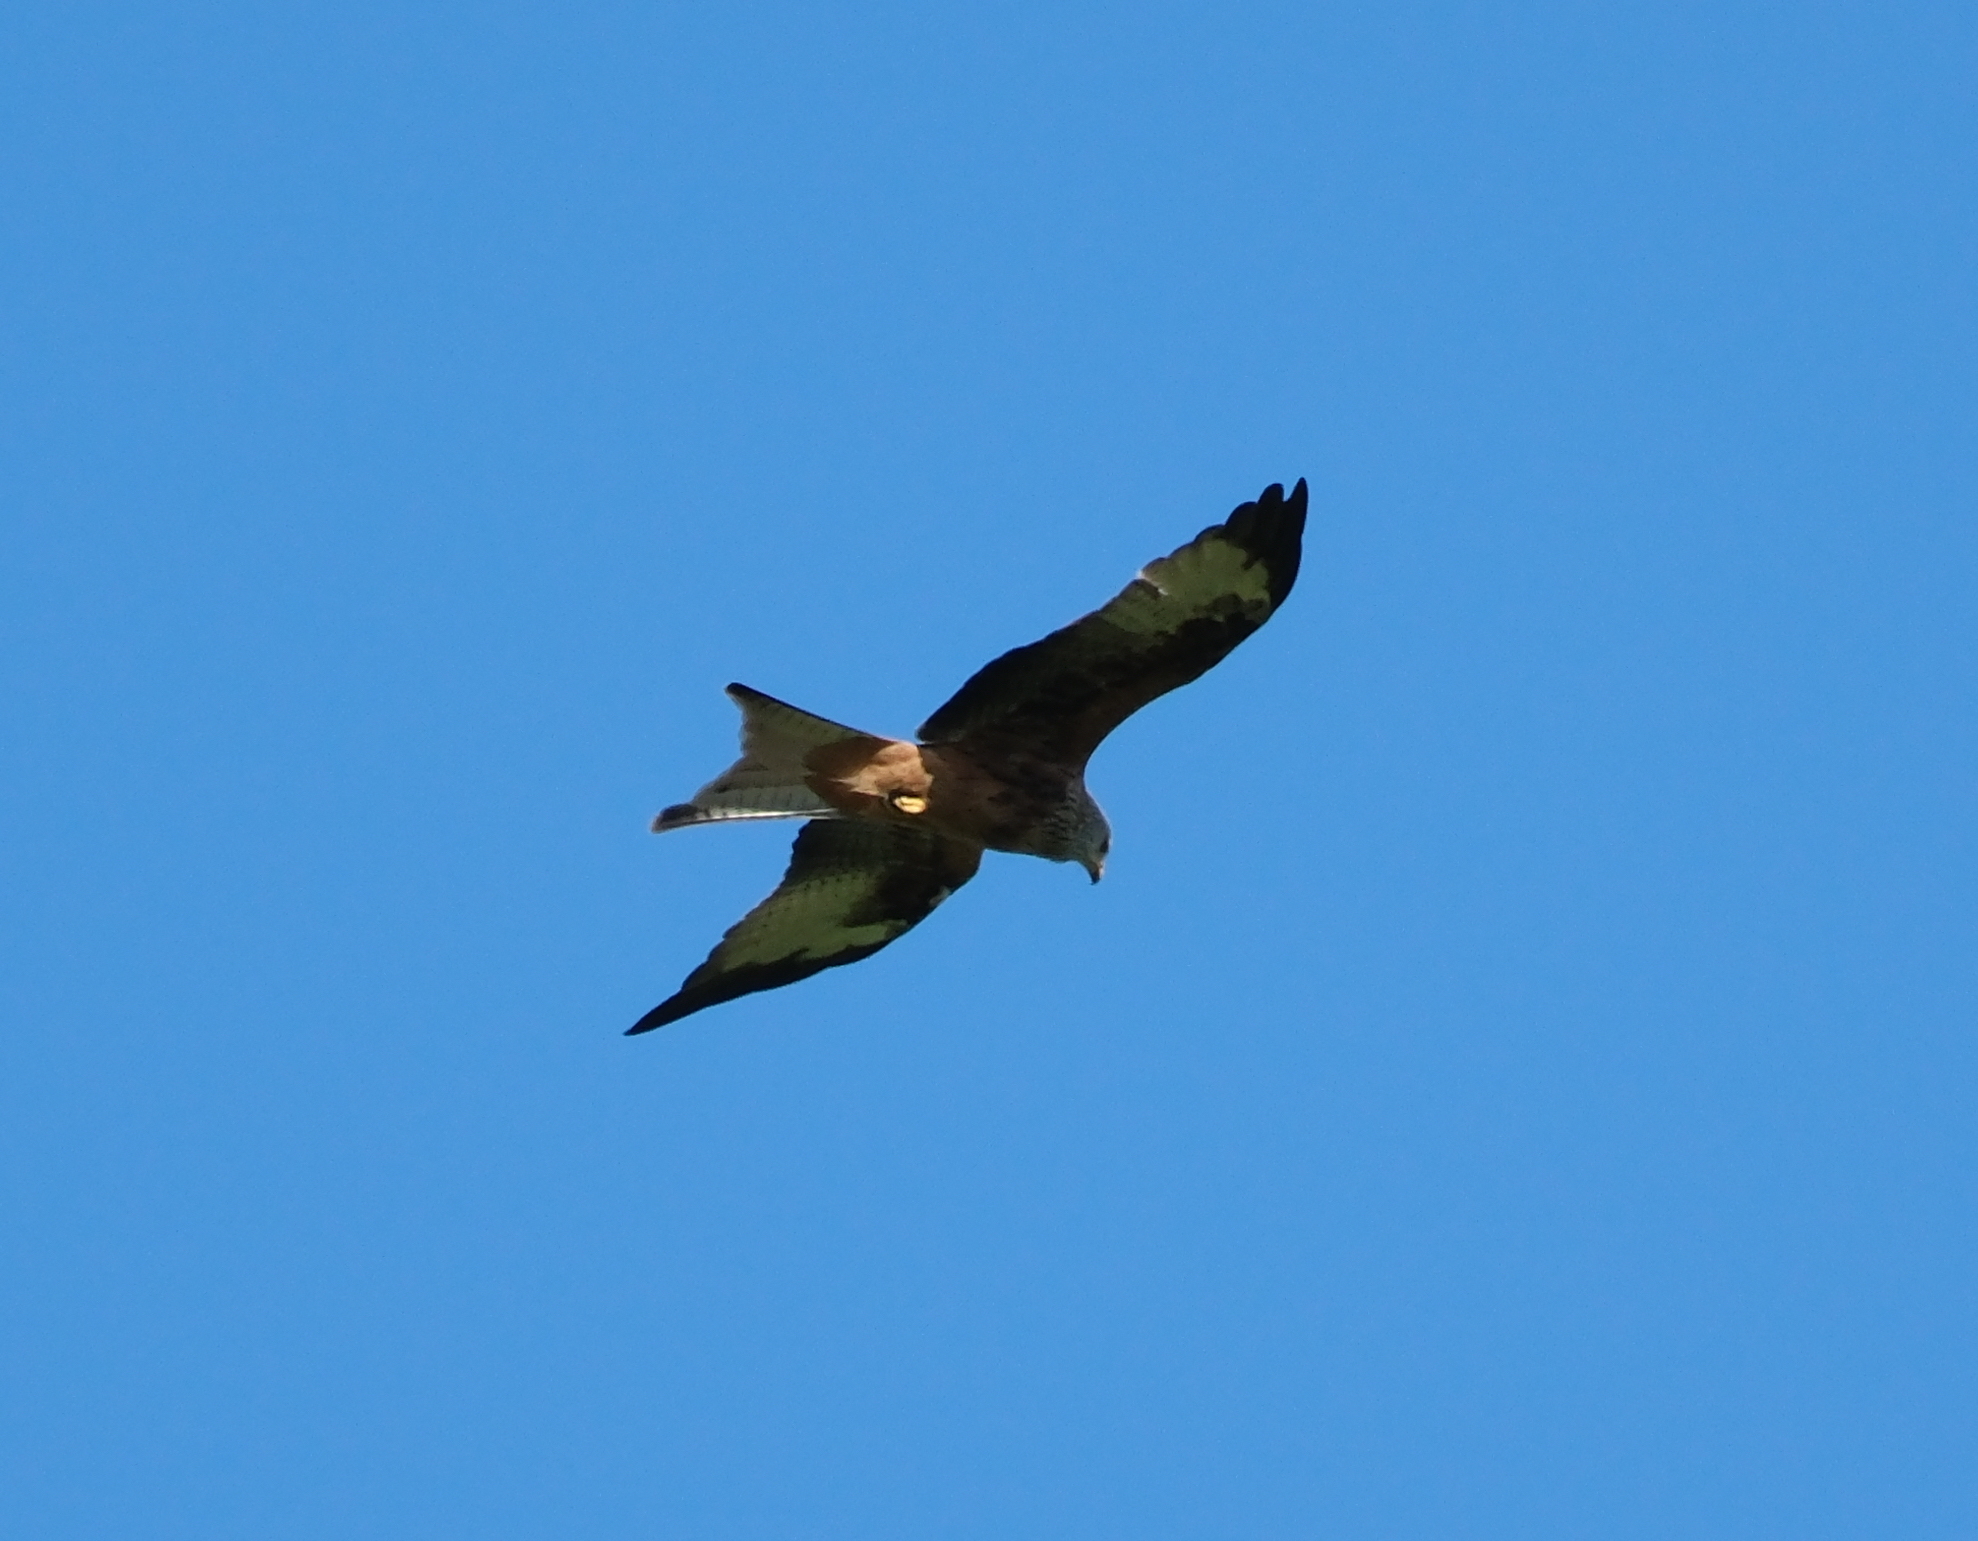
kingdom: Animalia
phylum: Chordata
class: Aves
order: Accipitriformes
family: Accipitridae
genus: Milvus
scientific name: Milvus milvus
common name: Red kite
